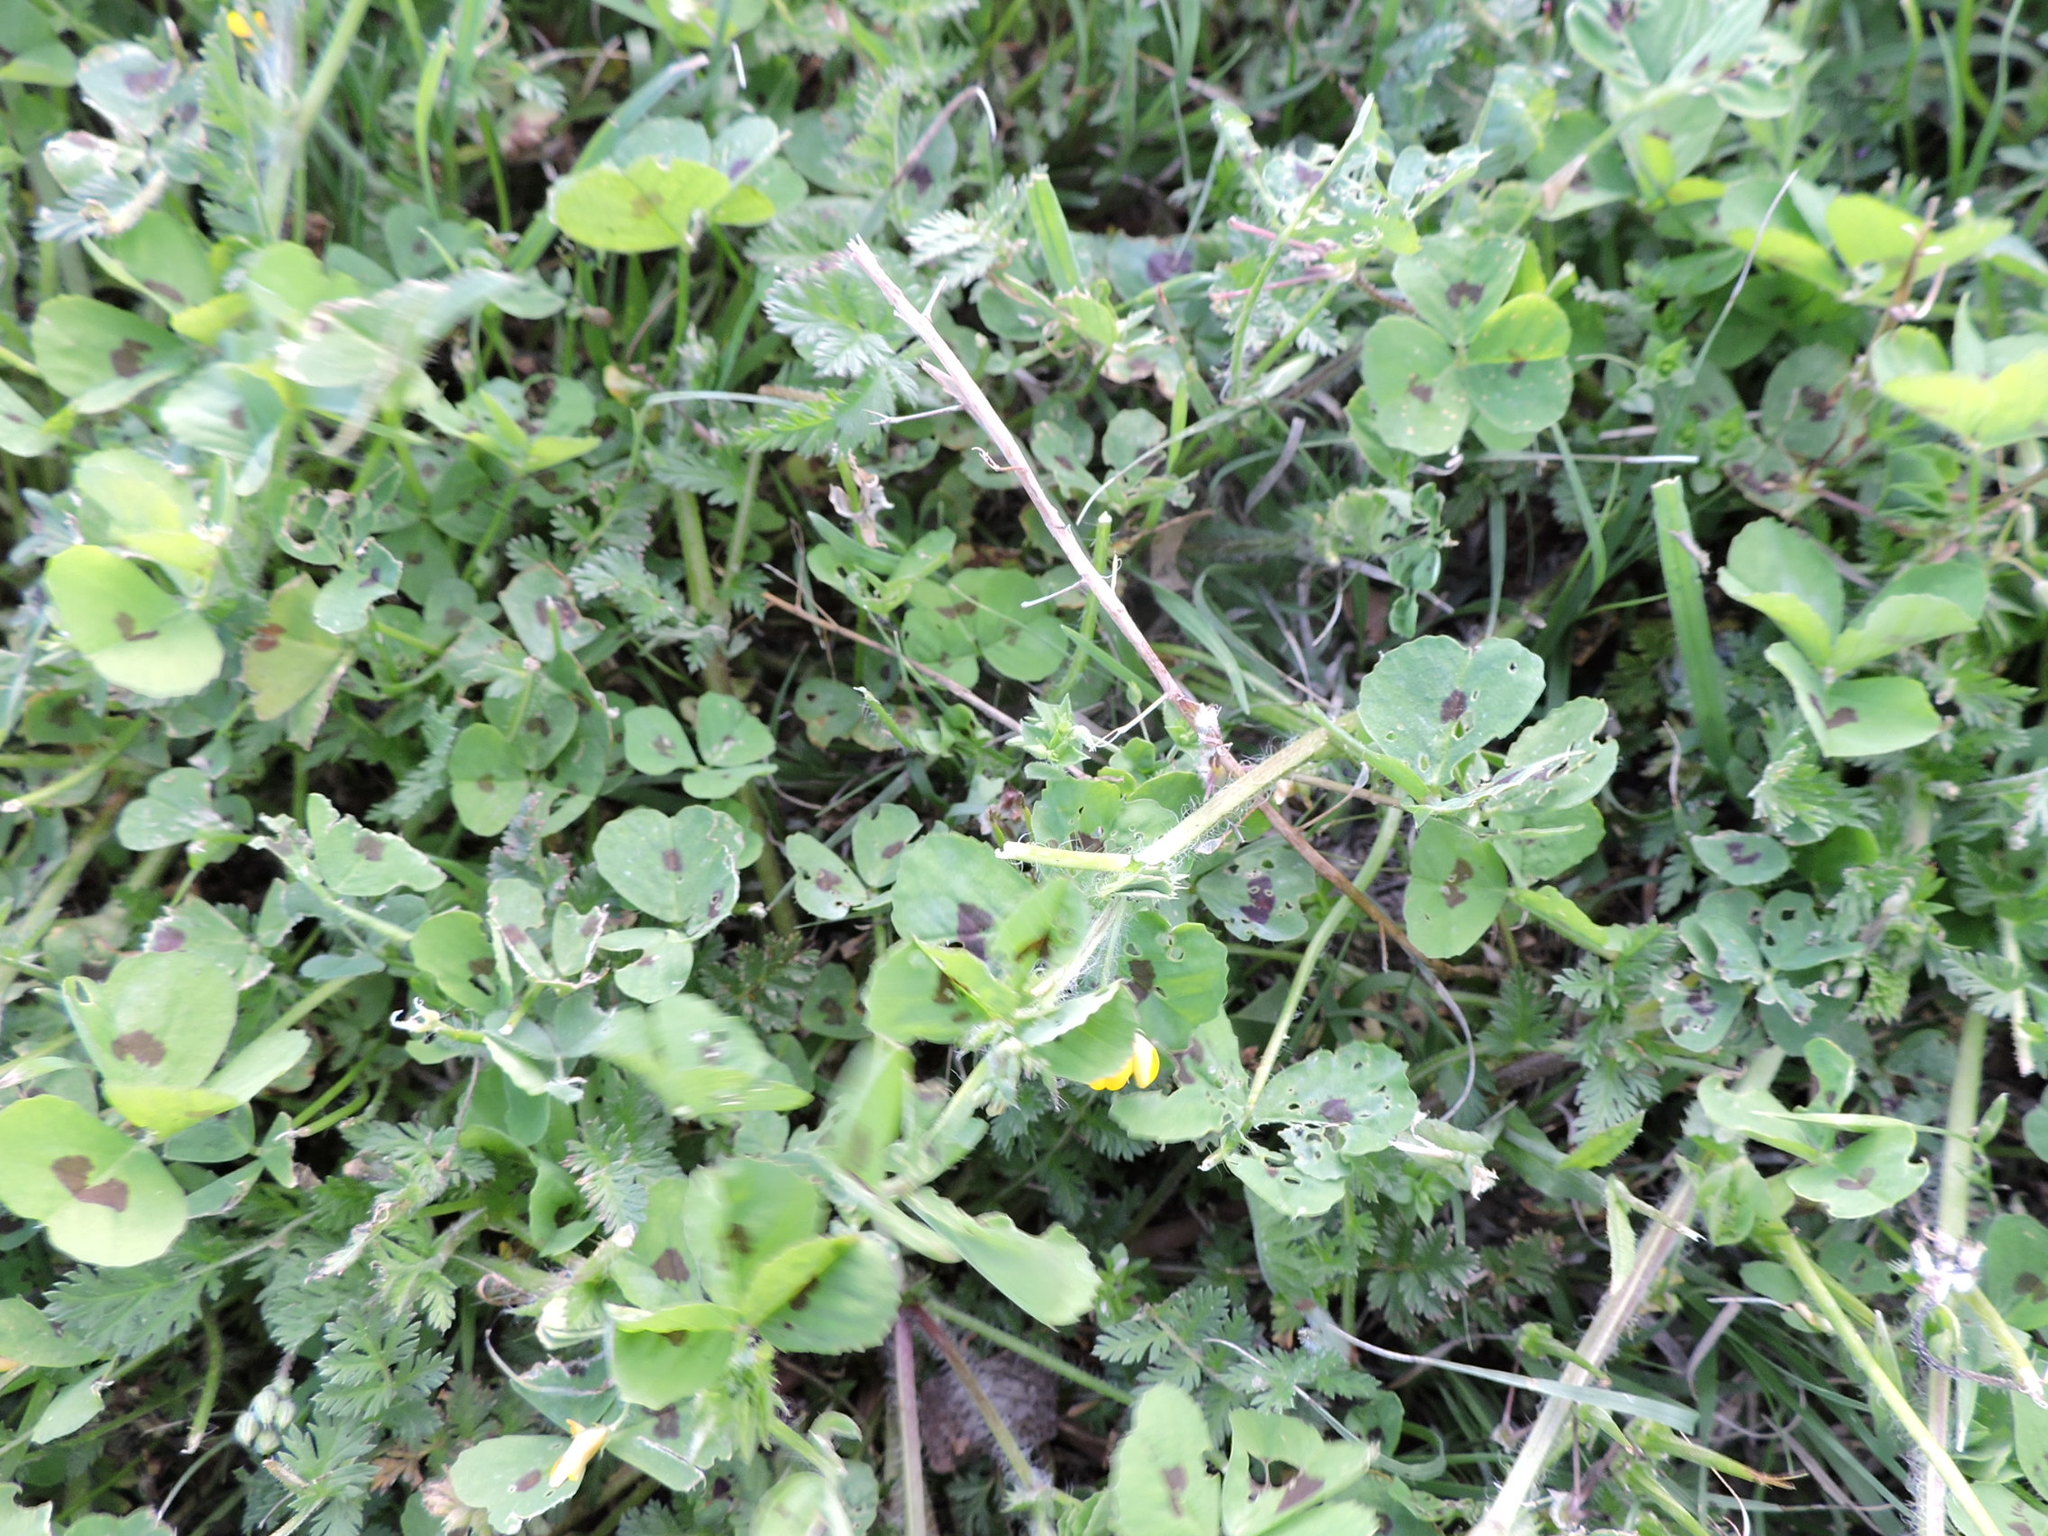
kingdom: Plantae
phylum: Tracheophyta
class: Magnoliopsida
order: Fabales
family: Fabaceae
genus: Medicago
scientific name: Medicago arabica
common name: Spotted medick
